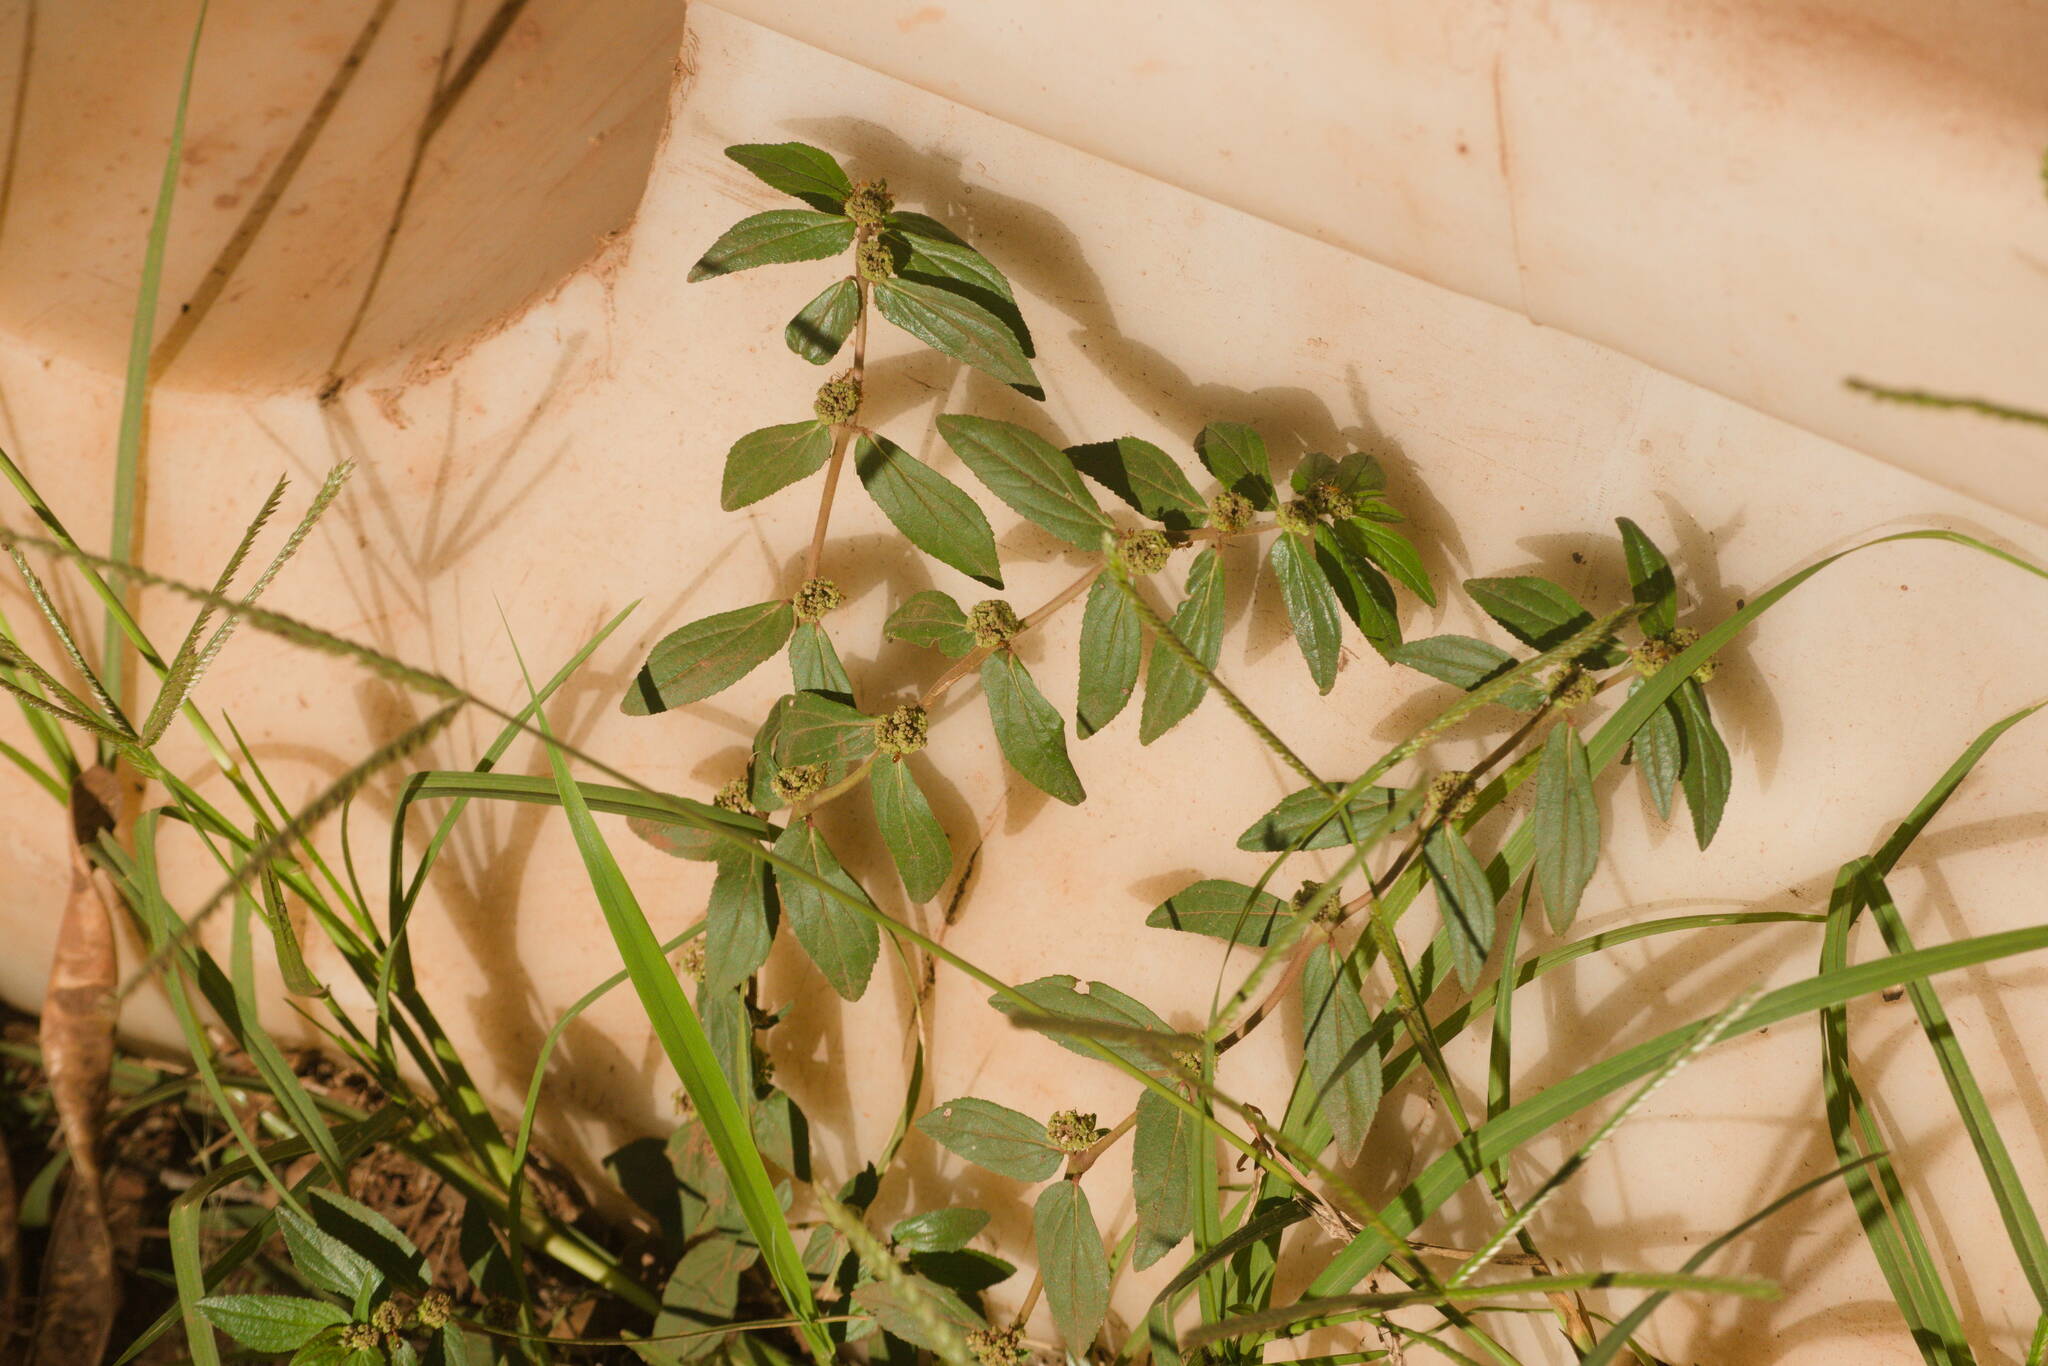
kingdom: Plantae
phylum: Tracheophyta
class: Magnoliopsida
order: Malpighiales
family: Euphorbiaceae
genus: Euphorbia
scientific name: Euphorbia hirta
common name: Pillpod sandmat
